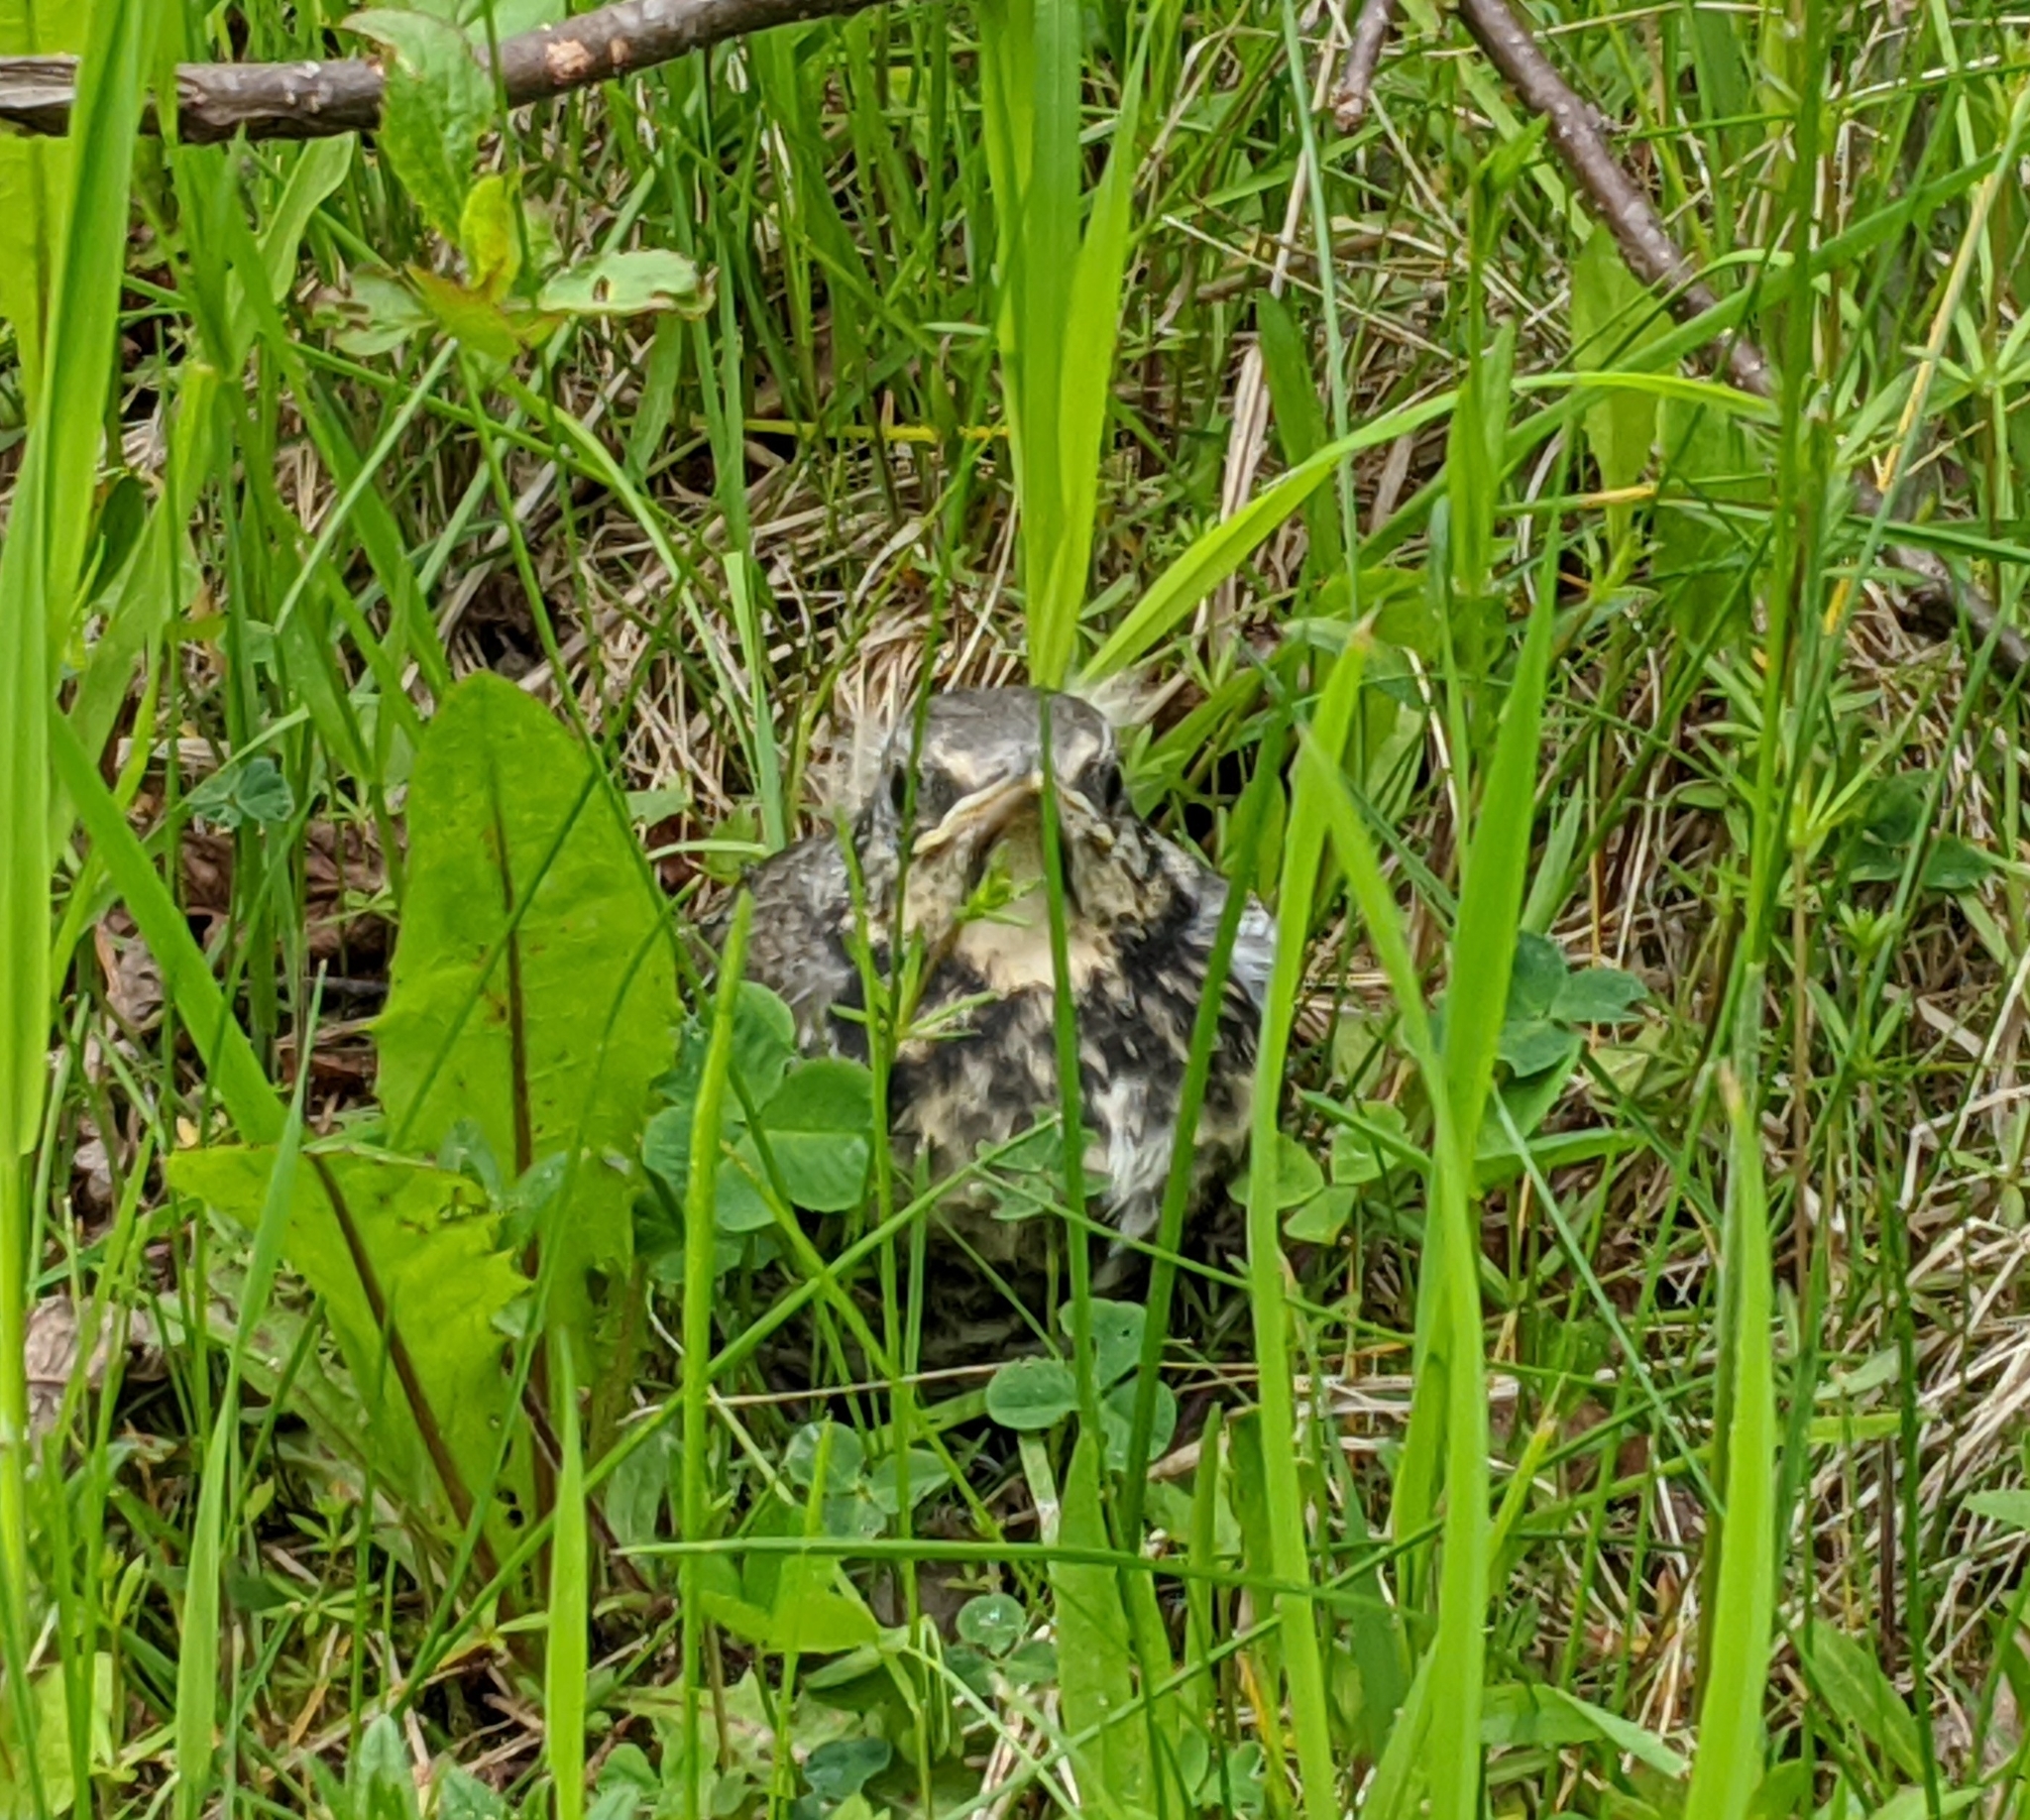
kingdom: Animalia
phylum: Chordata
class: Aves
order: Passeriformes
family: Turdidae
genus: Turdus
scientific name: Turdus pilaris
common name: Fieldfare
